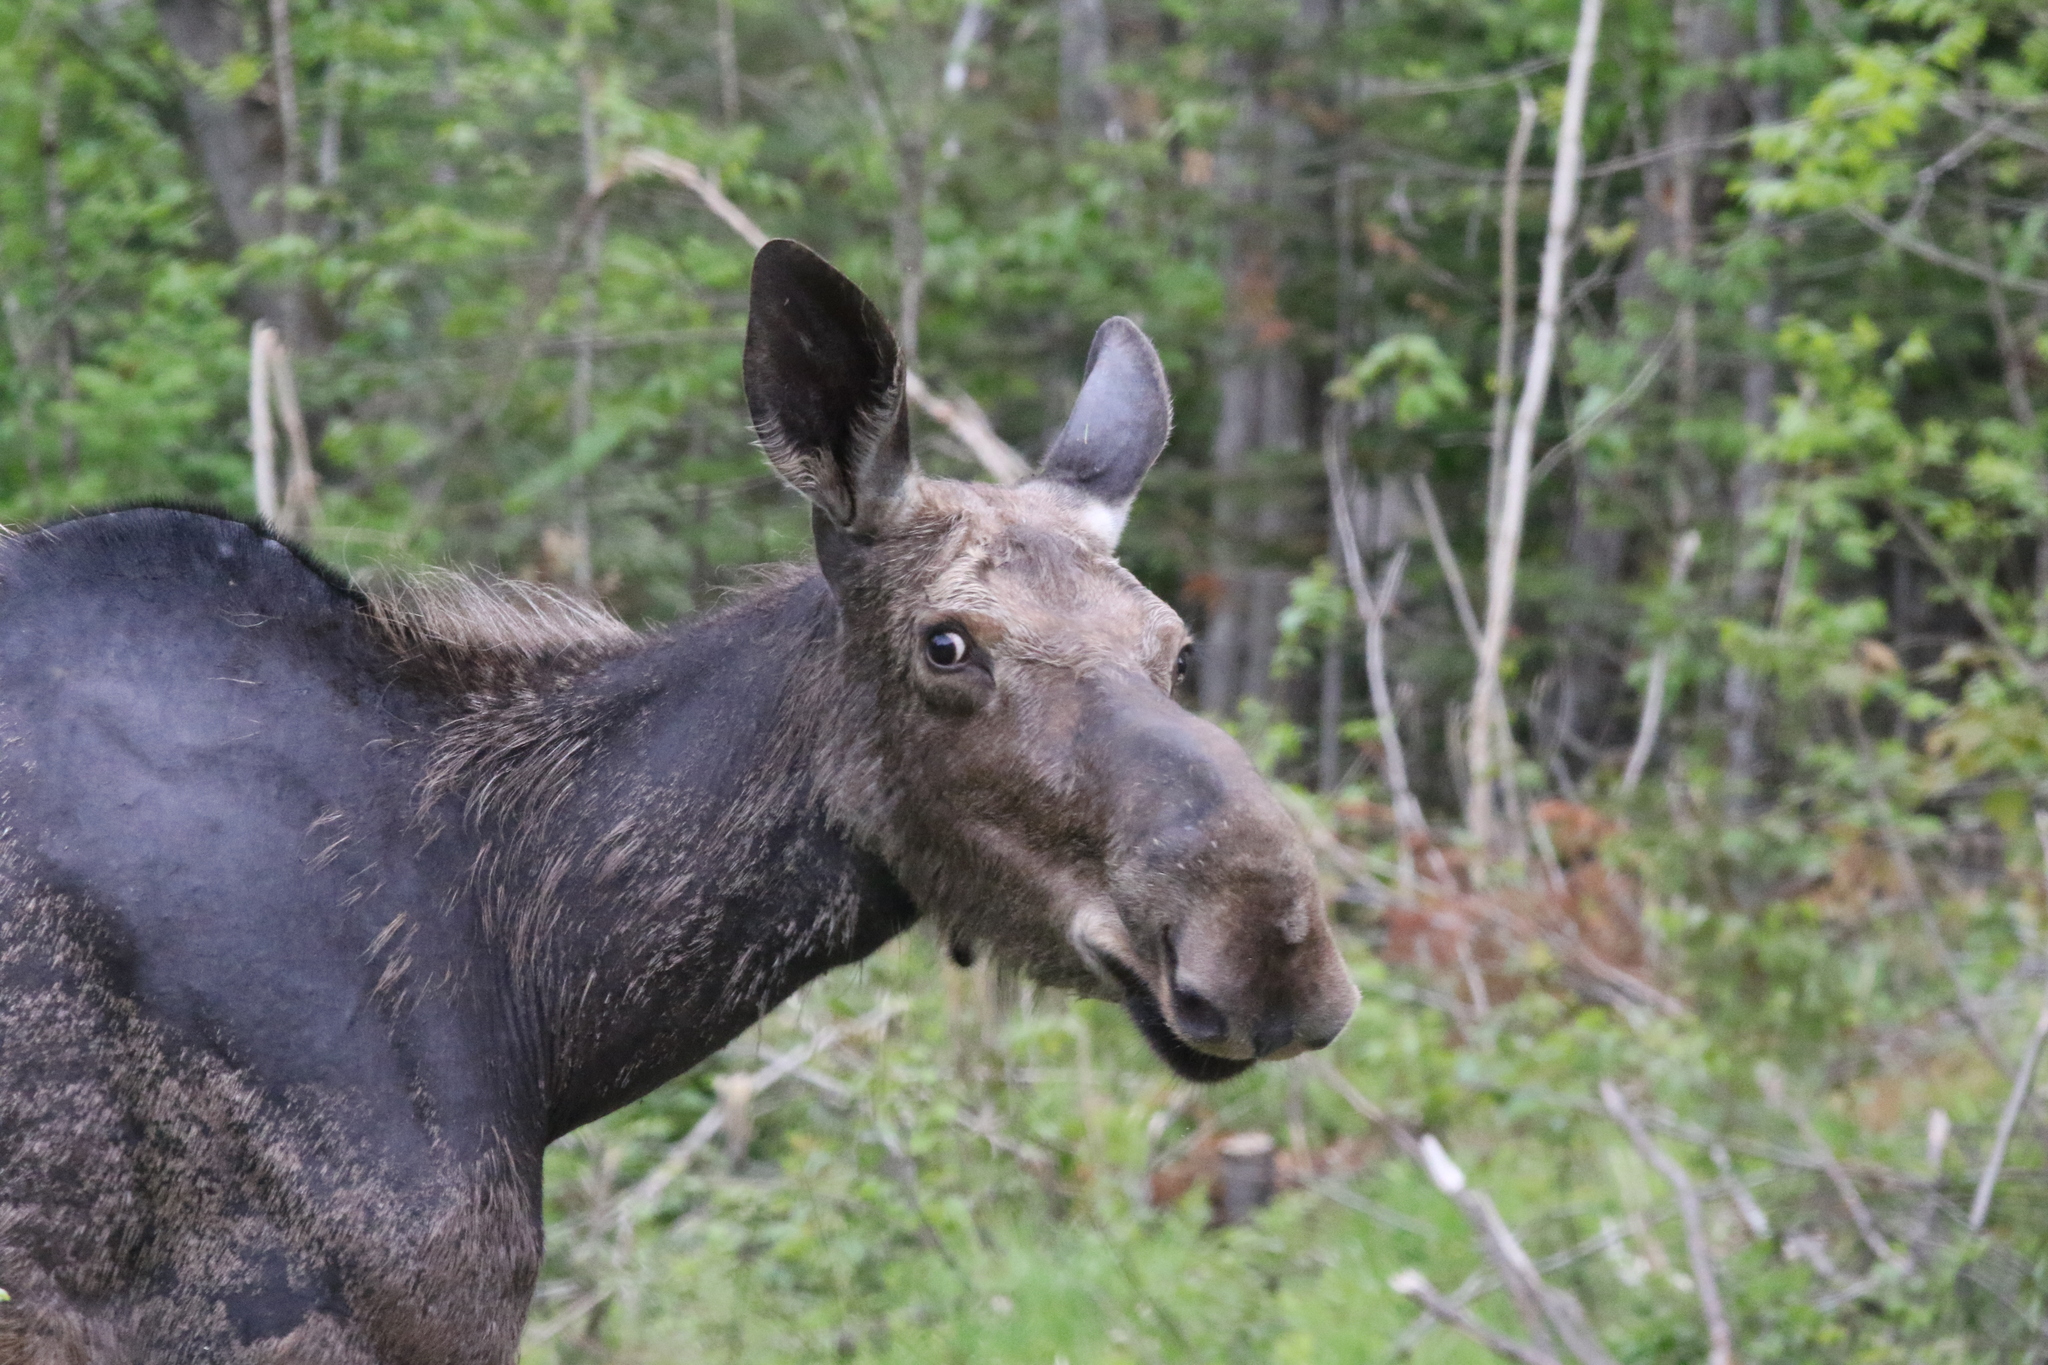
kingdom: Animalia
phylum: Chordata
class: Mammalia
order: Artiodactyla
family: Cervidae
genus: Alces
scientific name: Alces alces
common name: Moose
